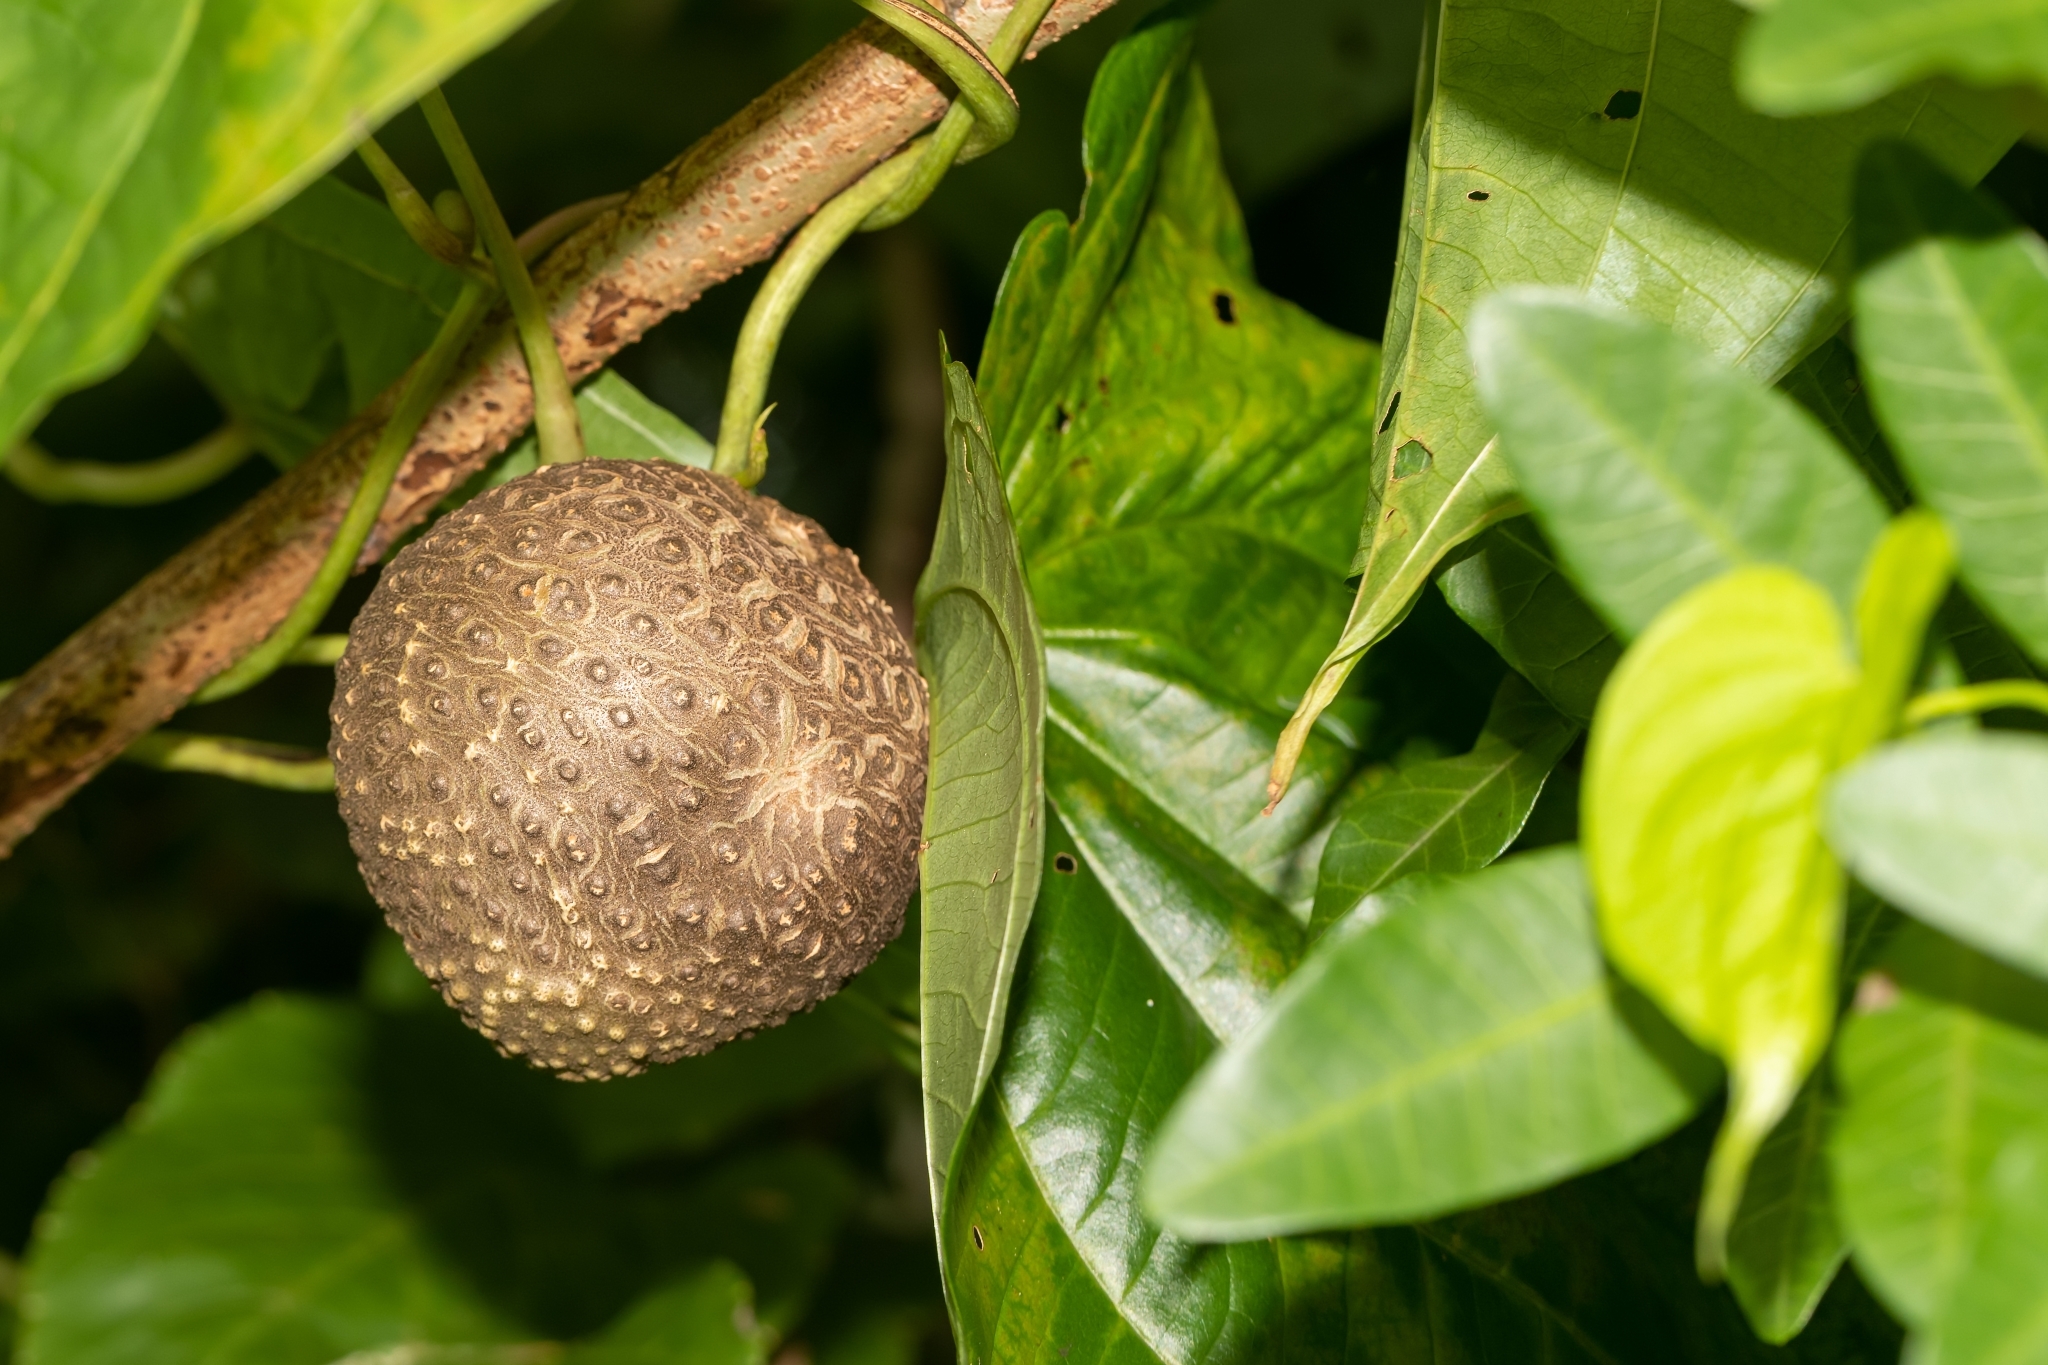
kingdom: Plantae
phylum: Tracheophyta
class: Liliopsida
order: Dioscoreales
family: Dioscoreaceae
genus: Dioscorea
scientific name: Dioscorea bulbifera
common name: Air yam
